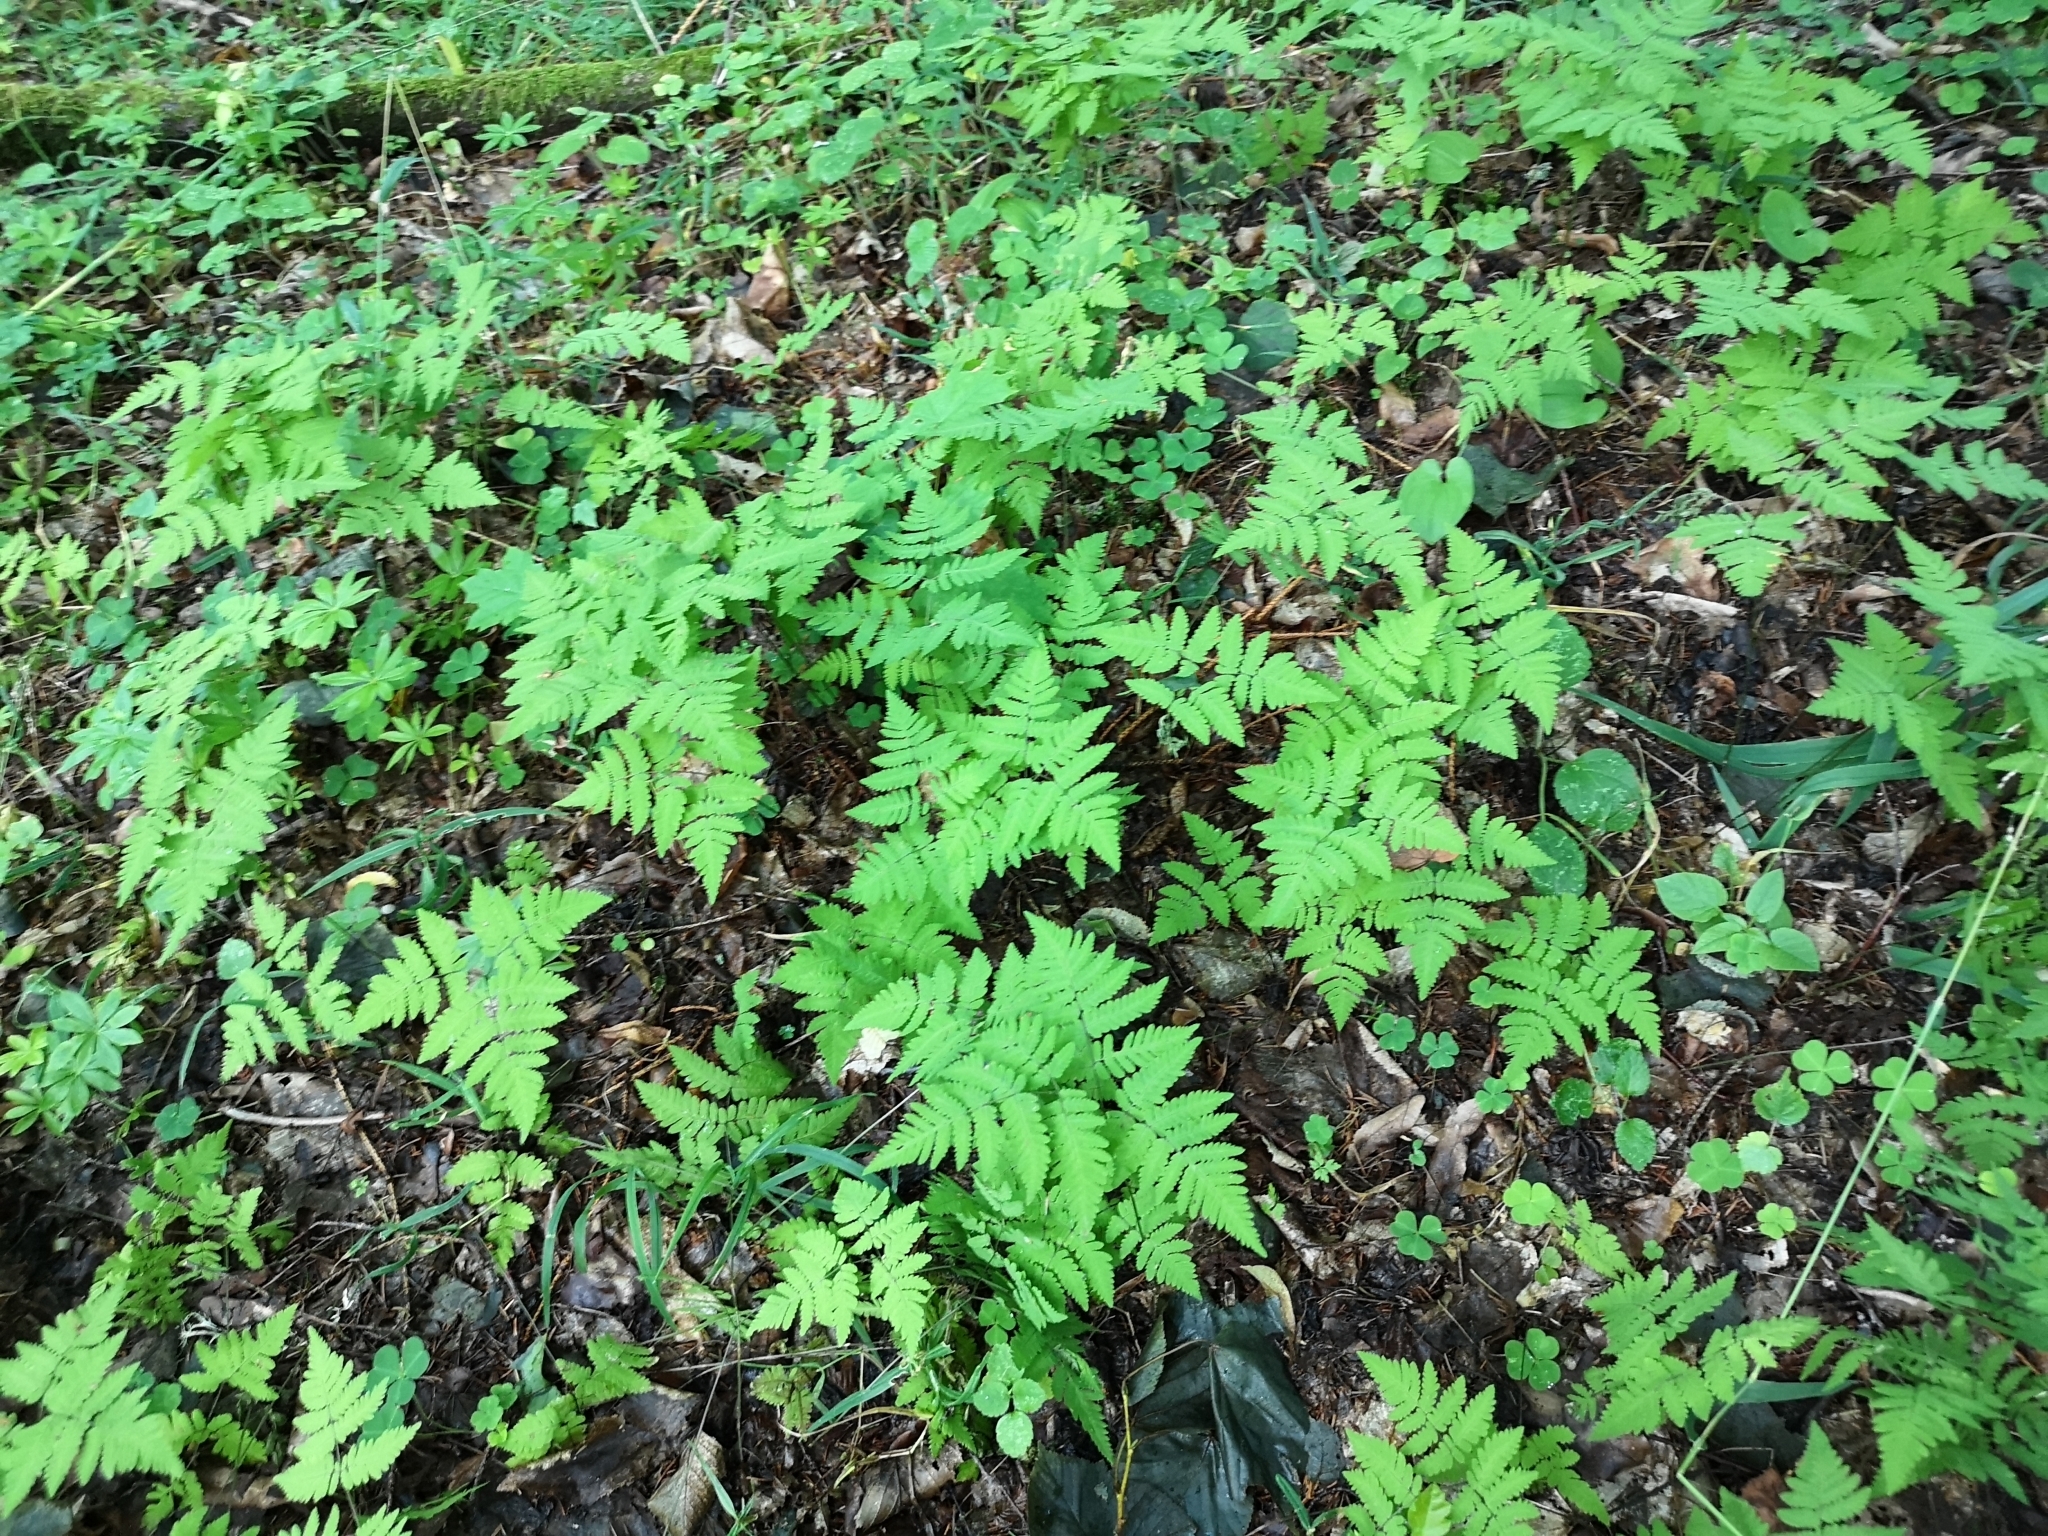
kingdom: Plantae
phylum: Tracheophyta
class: Polypodiopsida
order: Polypodiales
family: Cystopteridaceae
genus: Gymnocarpium
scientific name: Gymnocarpium dryopteris
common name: Oak fern
